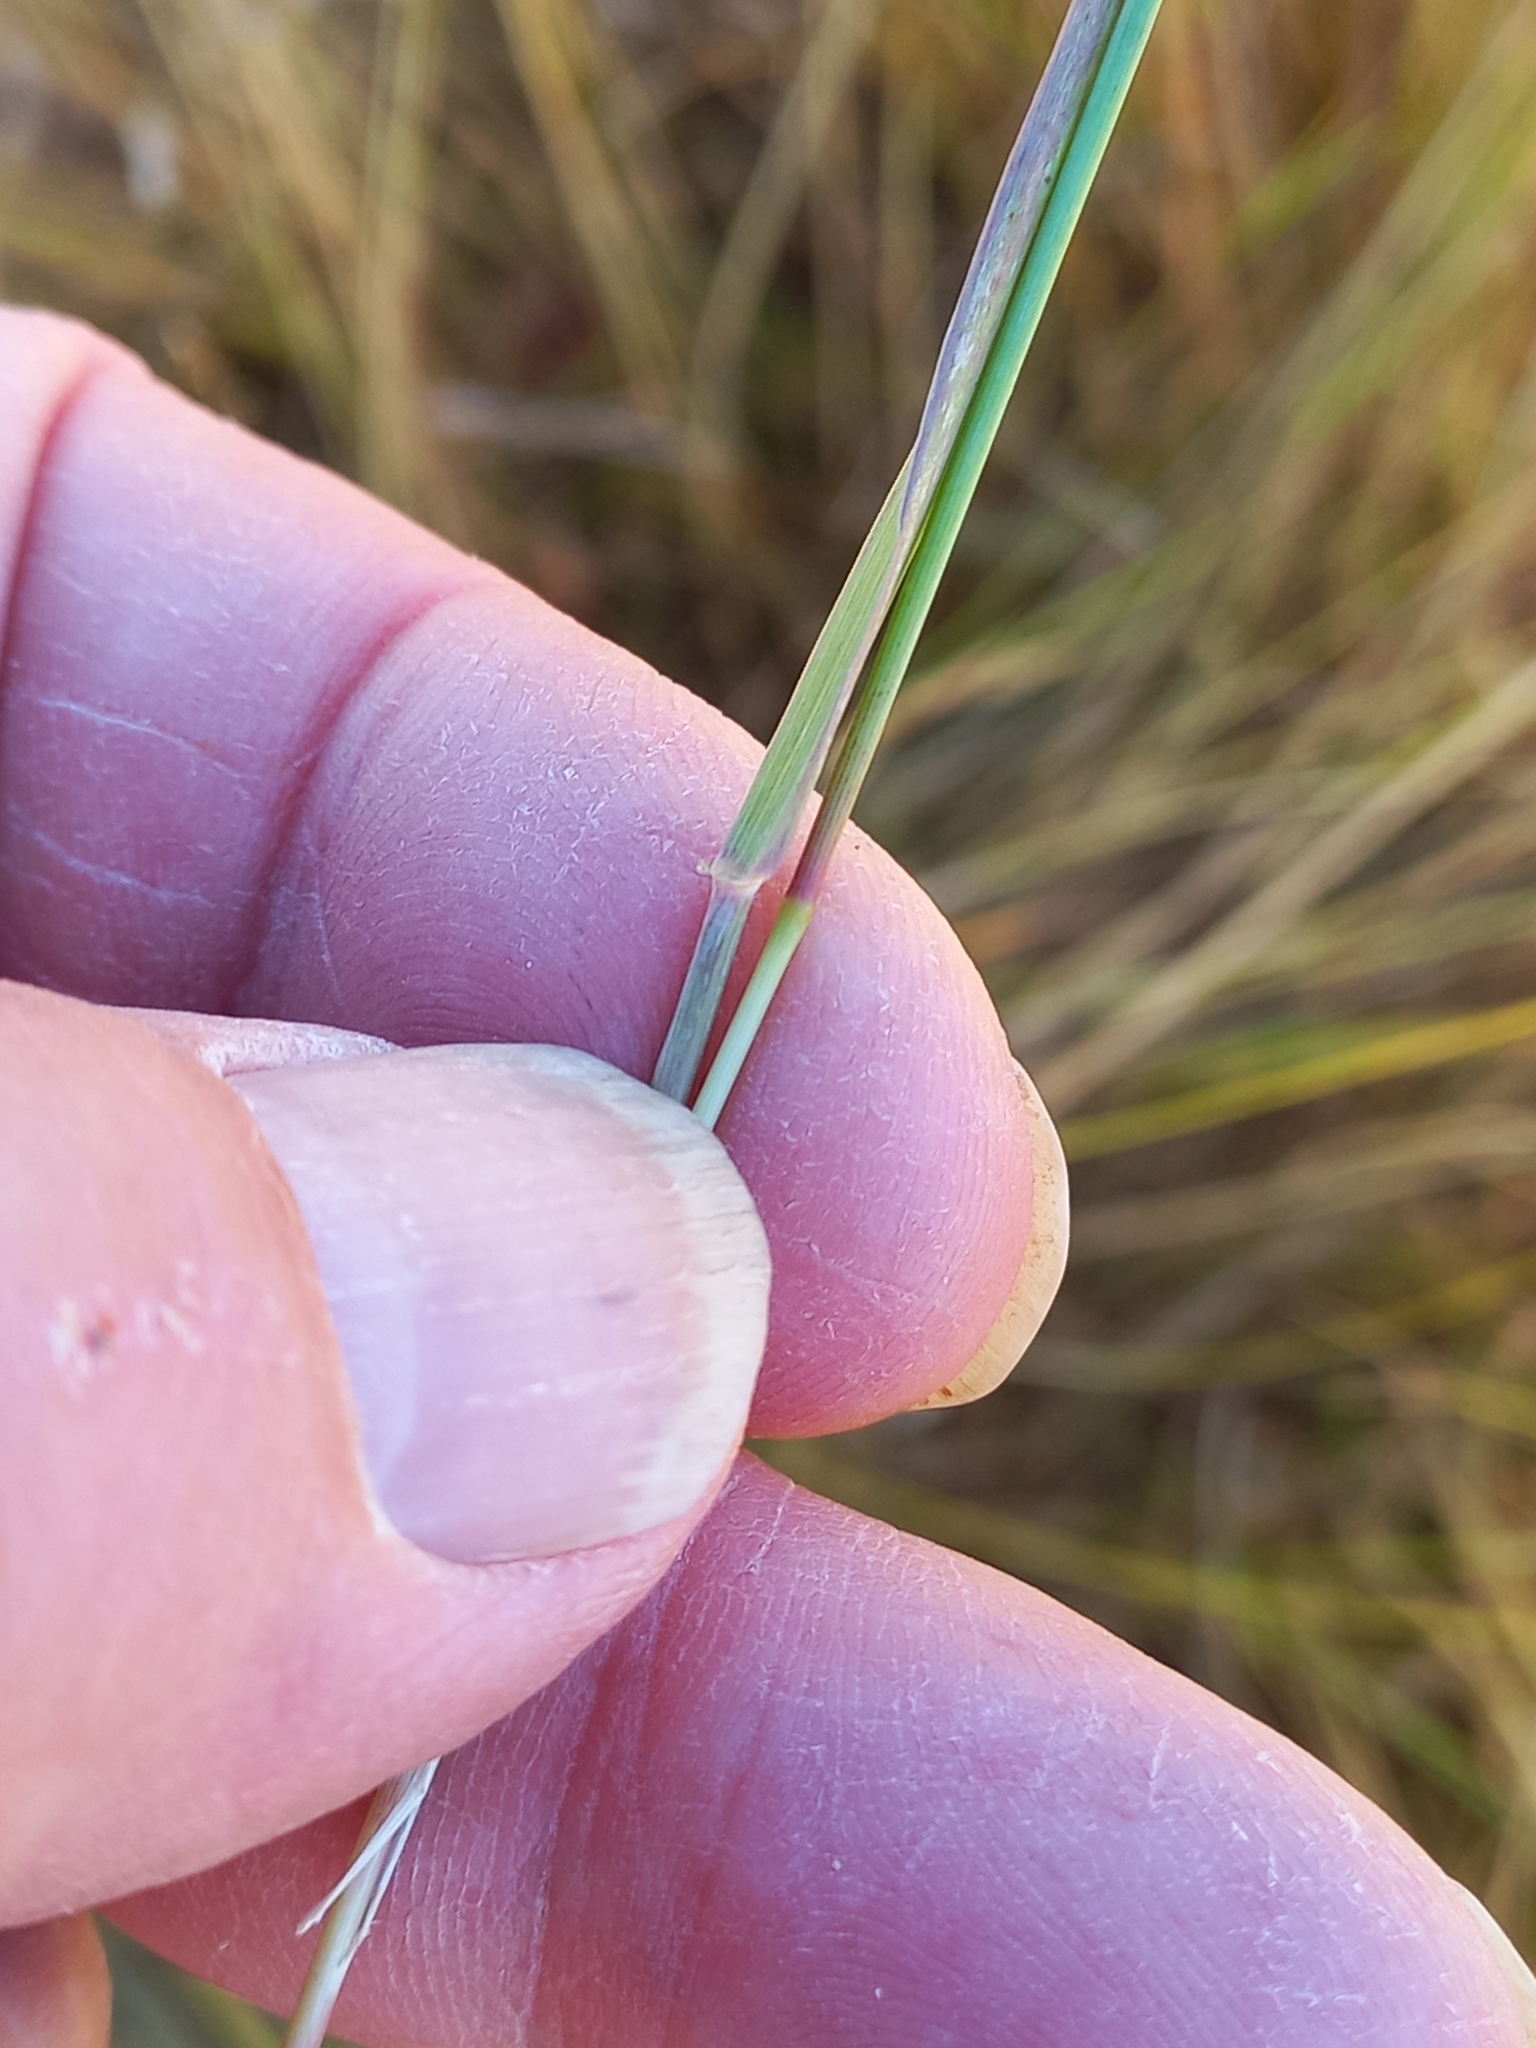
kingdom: Plantae
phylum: Tracheophyta
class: Liliopsida
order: Poales
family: Poaceae
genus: Agrostis
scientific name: Agrostis capillaris
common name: Colonial bentgrass
